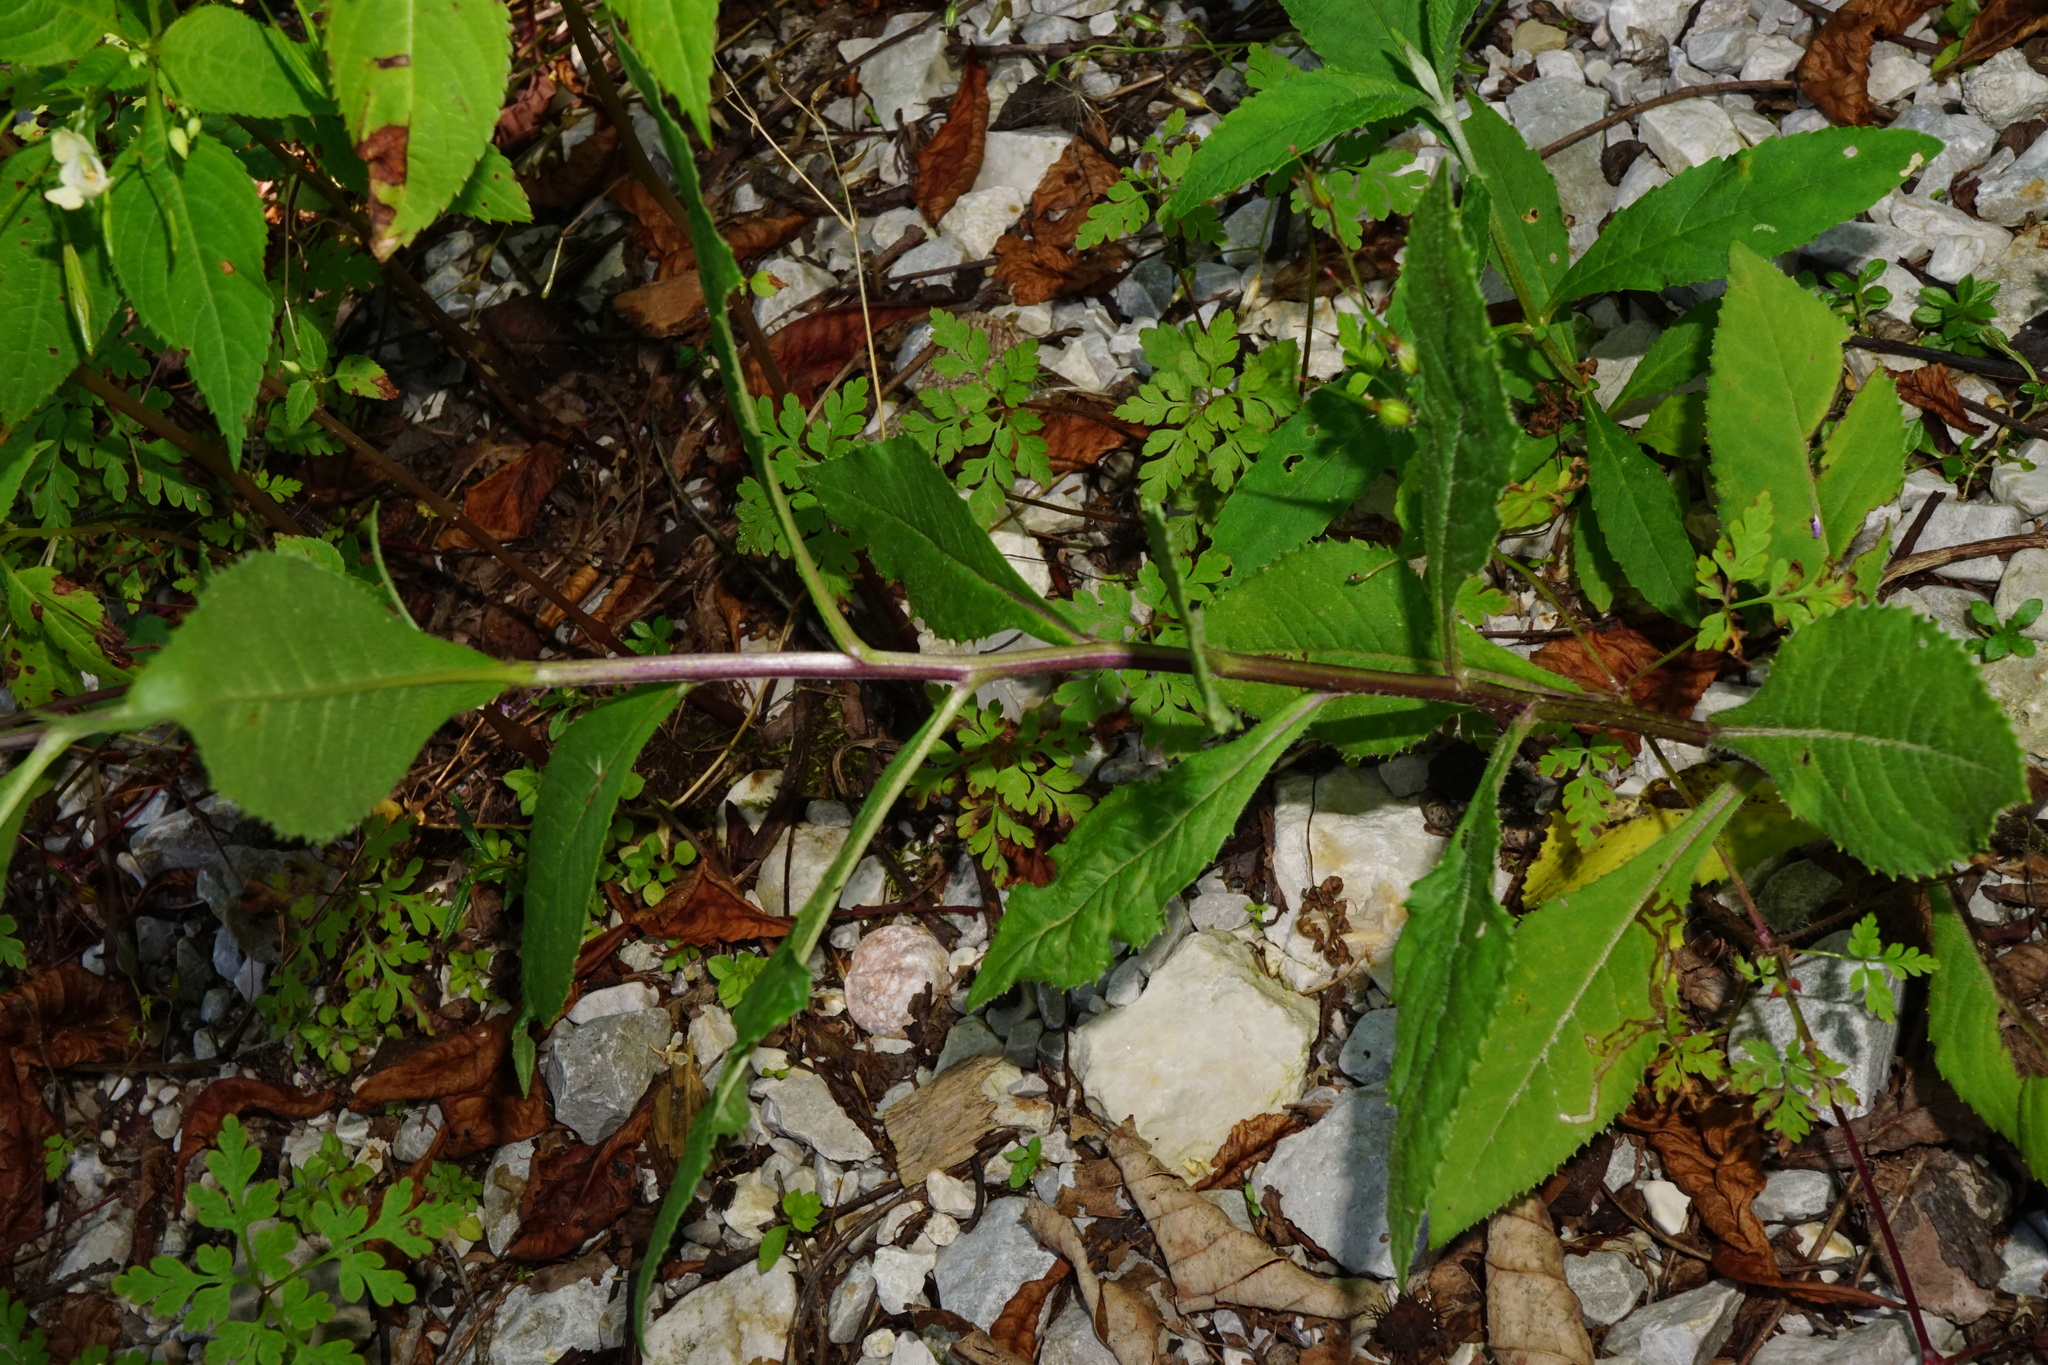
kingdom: Plantae
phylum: Tracheophyta
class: Magnoliopsida
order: Asterales
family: Asteraceae
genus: Senecio
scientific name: Senecio
